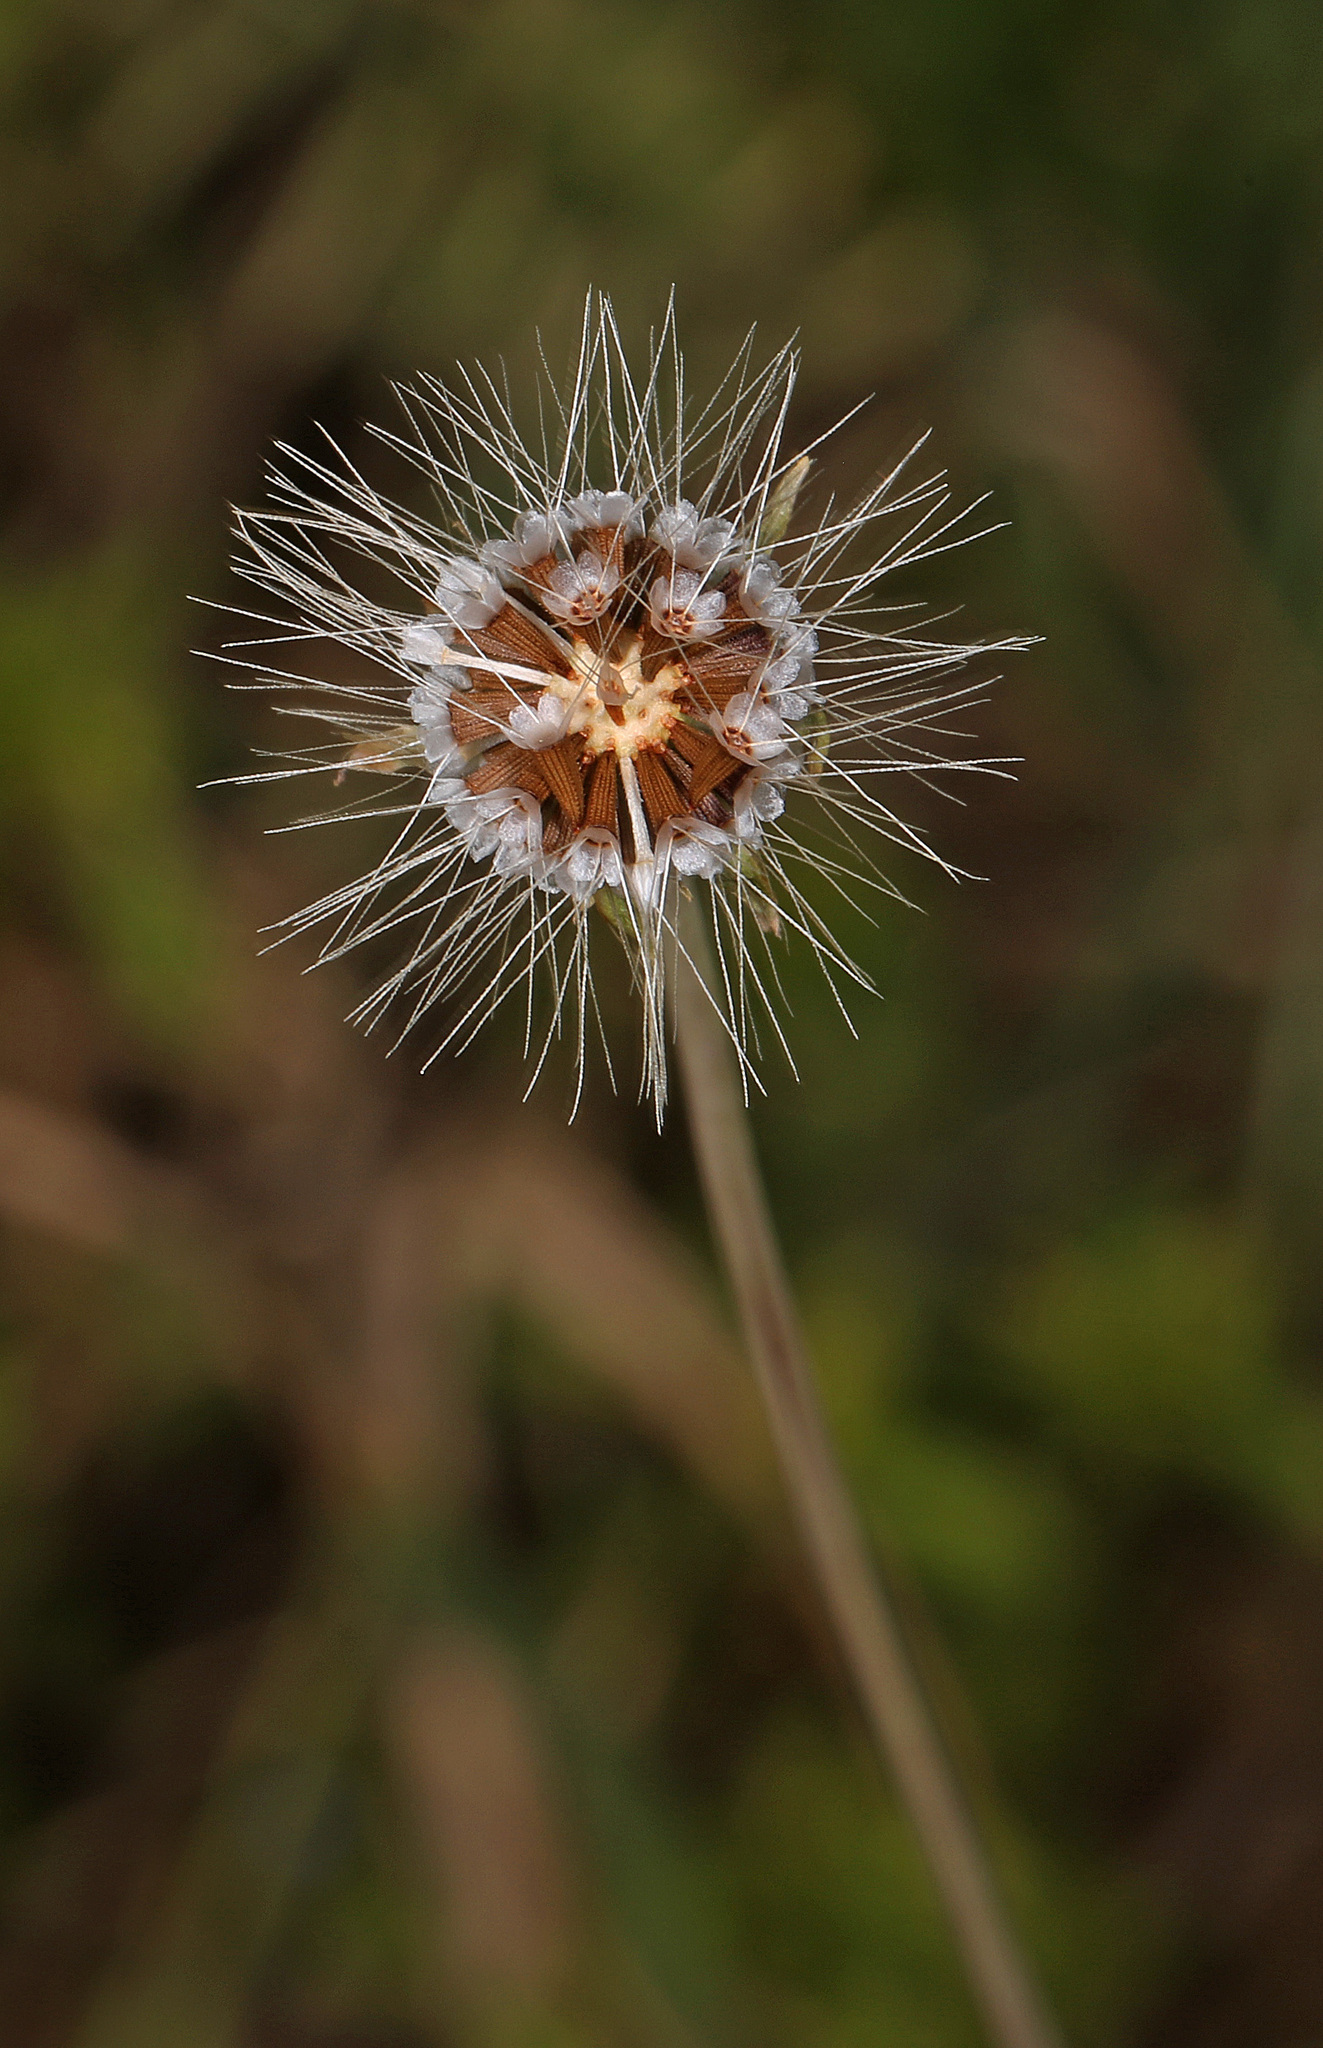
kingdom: Plantae
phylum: Tracheophyta
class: Magnoliopsida
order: Asterales
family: Asteraceae
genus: Krigia
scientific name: Krigia virginica
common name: Virginia dwarf-dandelion
